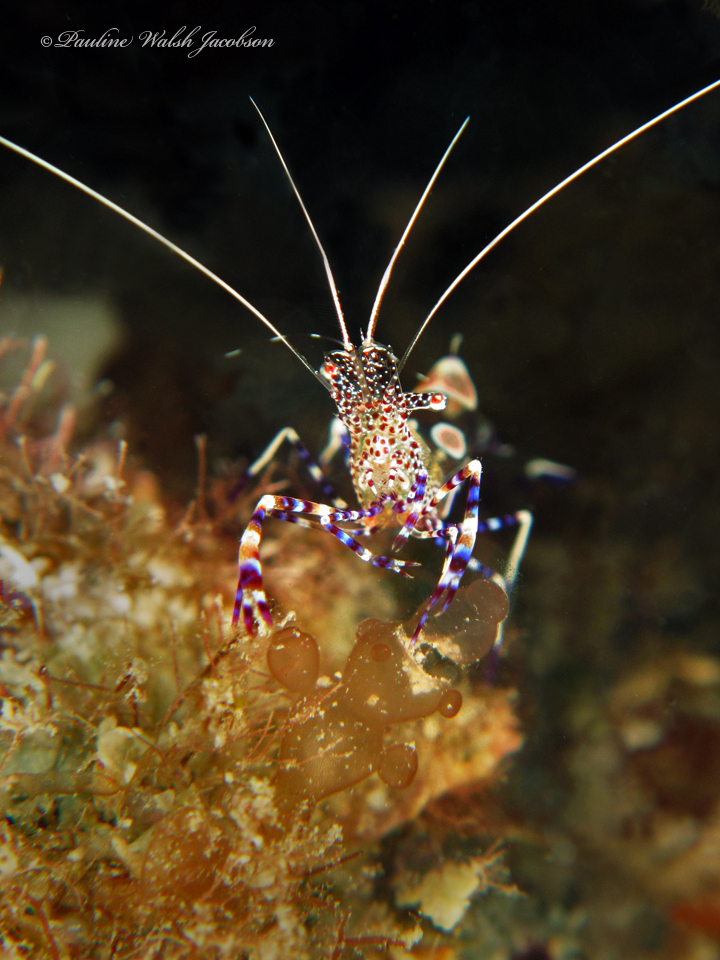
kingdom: Animalia
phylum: Arthropoda
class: Malacostraca
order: Decapoda
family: Palaemonidae
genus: Periclimenes
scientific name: Periclimenes yucatanicus
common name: Spotted cleaning shrimp
